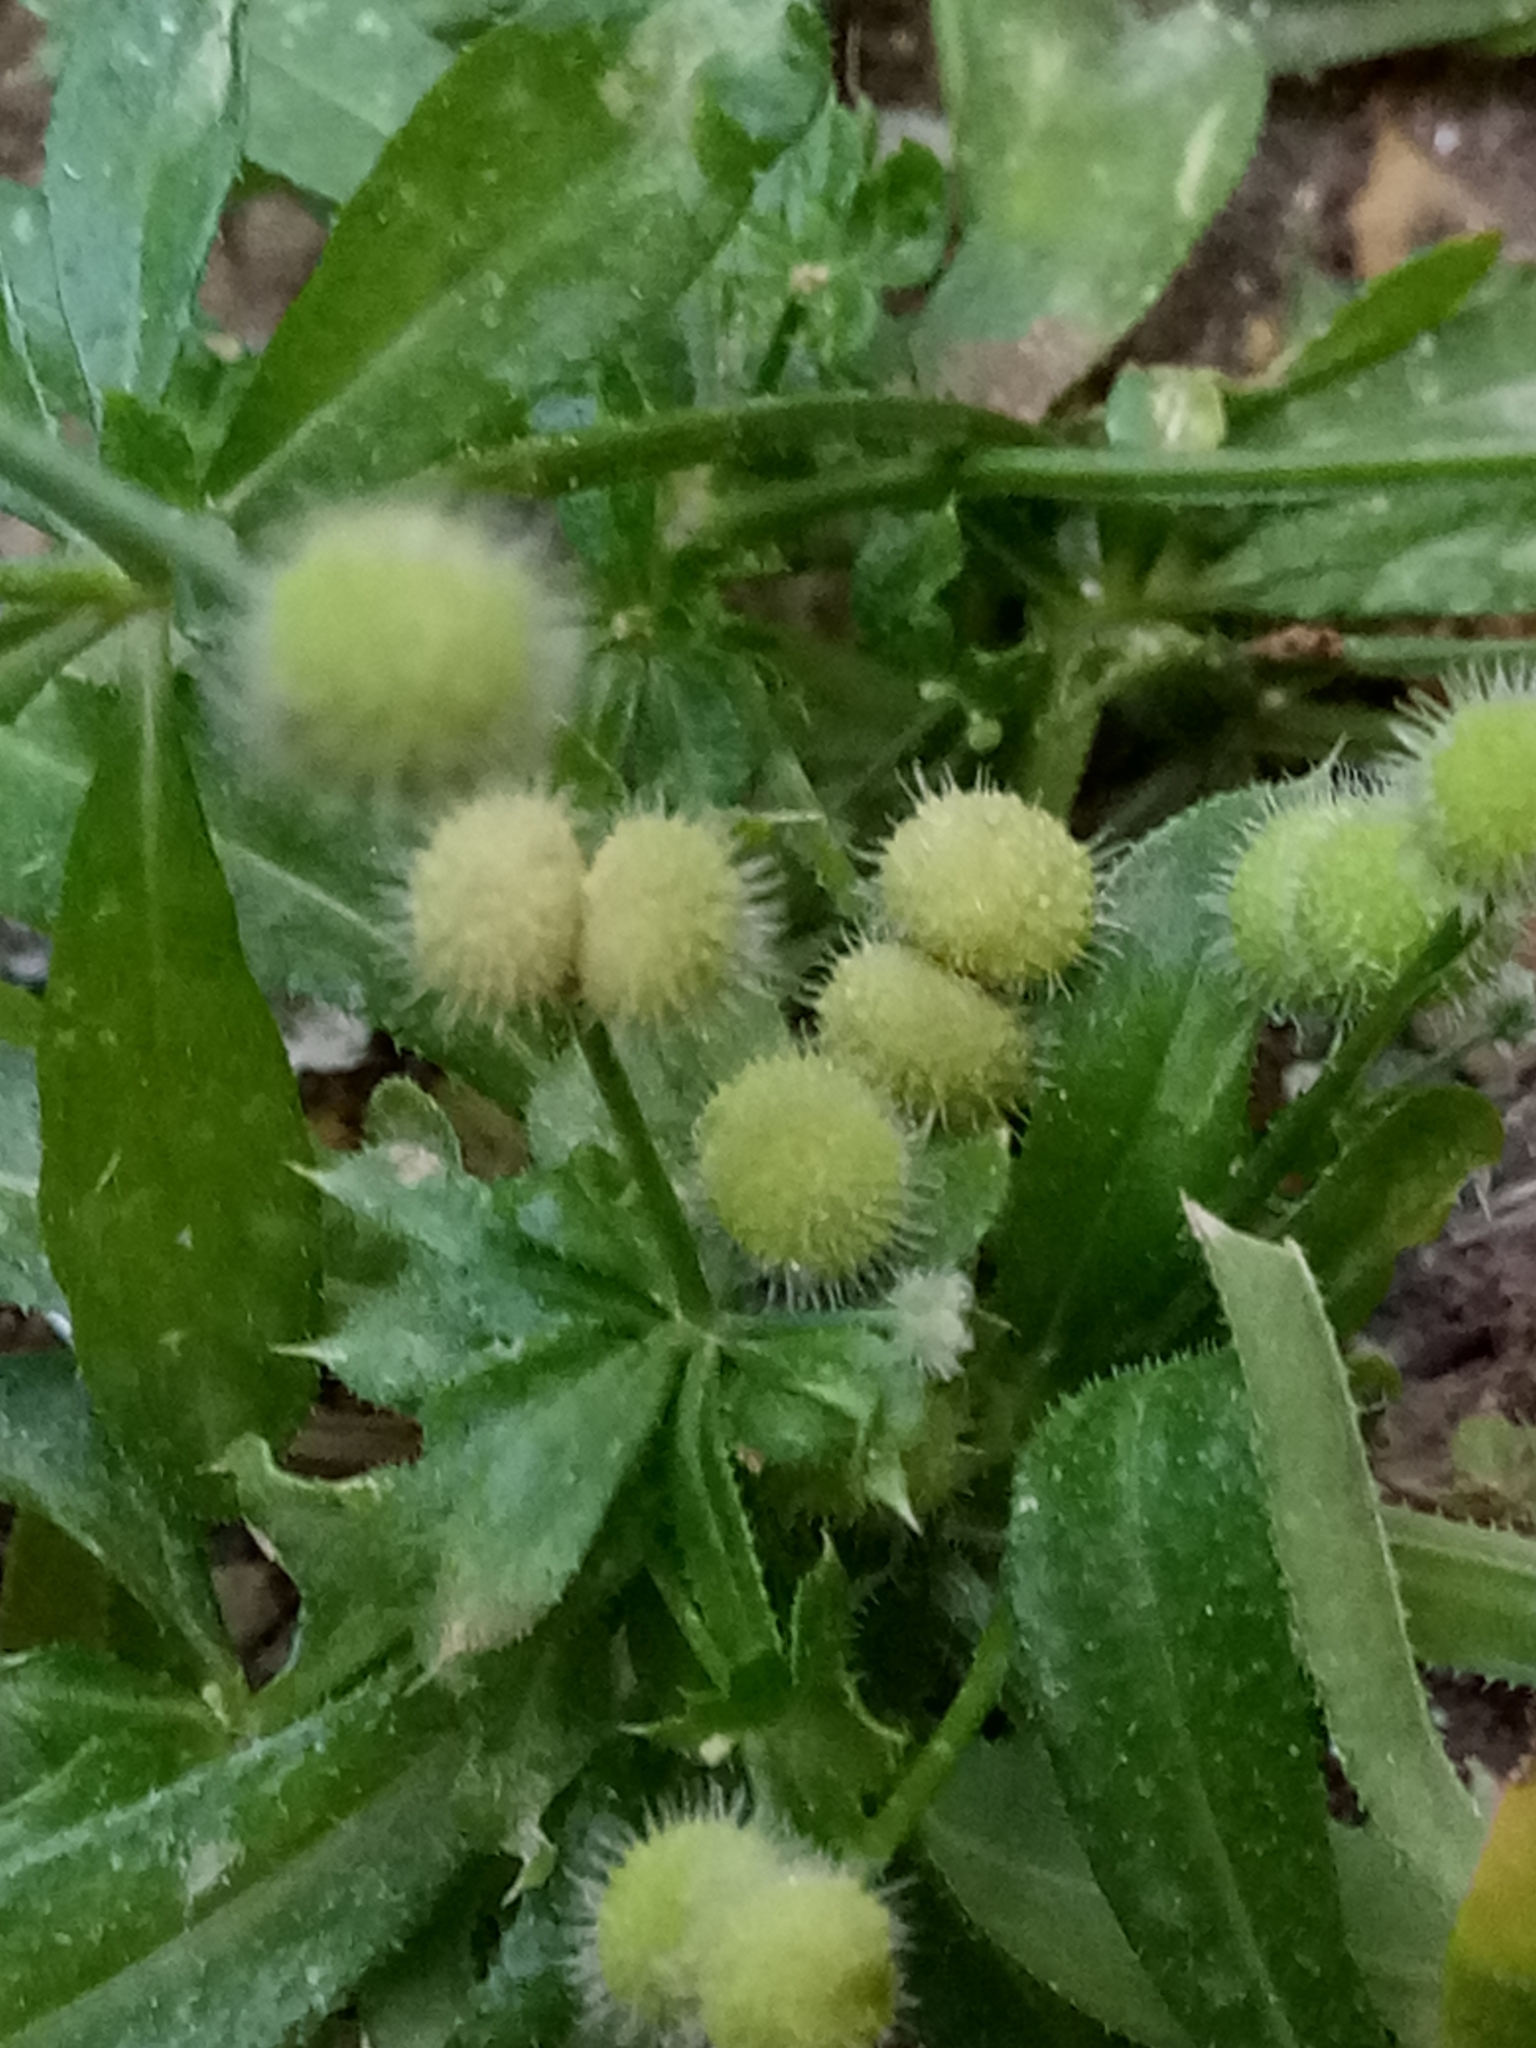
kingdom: Plantae
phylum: Tracheophyta
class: Magnoliopsida
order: Gentianales
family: Rubiaceae
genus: Galium
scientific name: Galium aparine
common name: Cleavers
